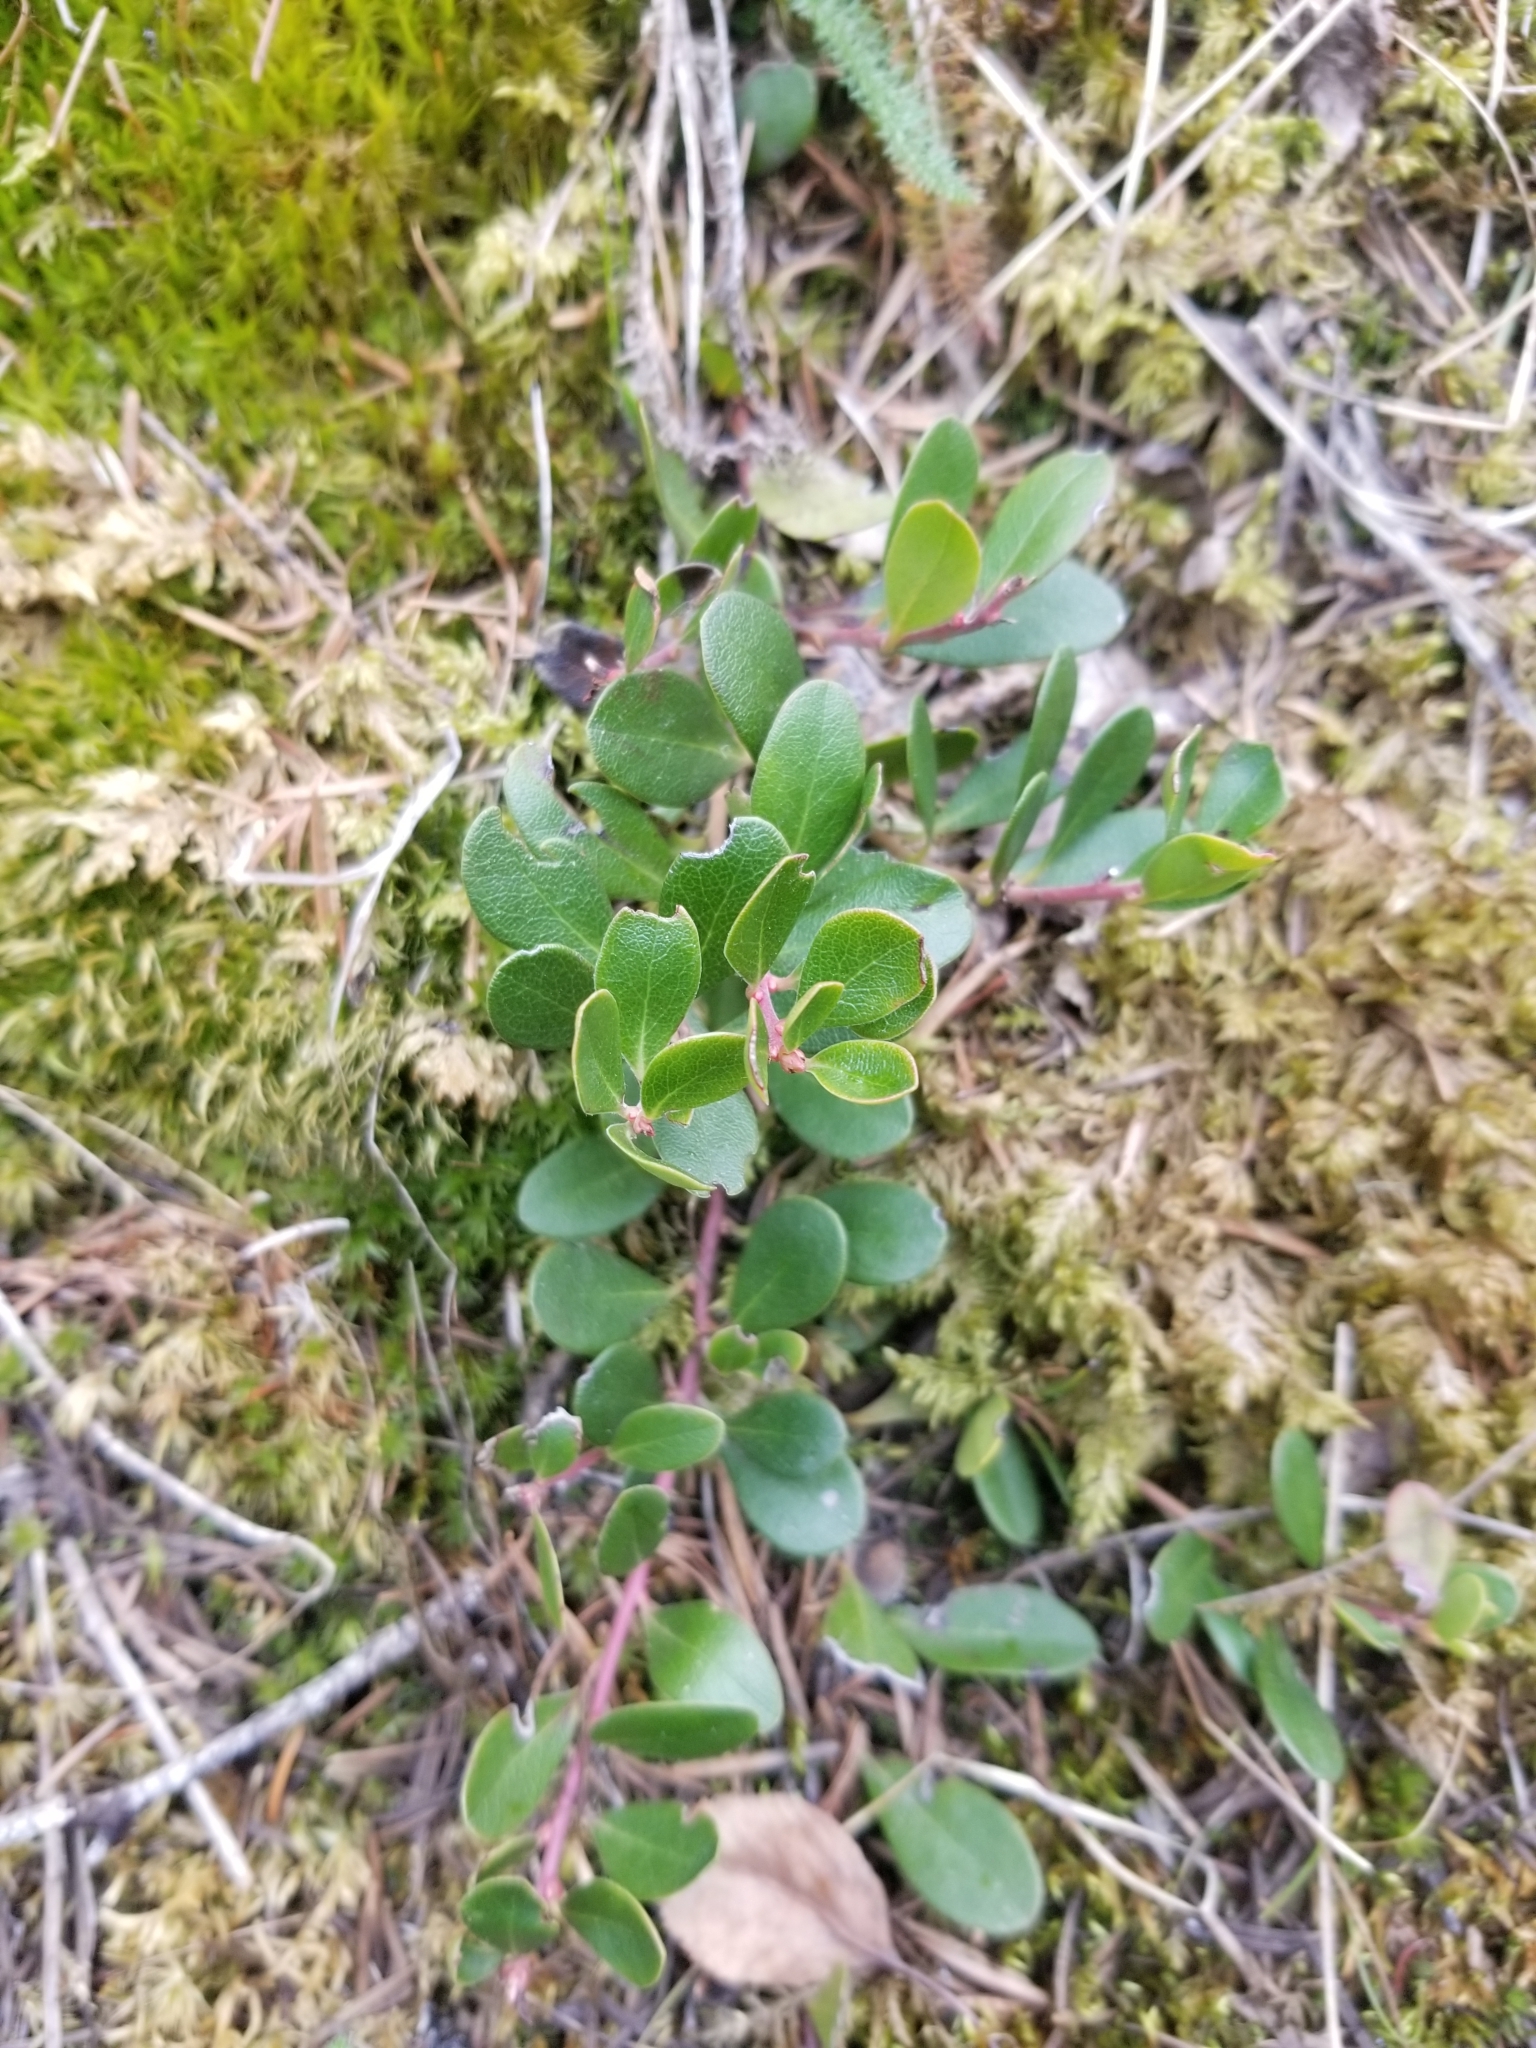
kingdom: Plantae
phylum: Tracheophyta
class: Magnoliopsida
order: Ericales
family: Ericaceae
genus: Arctostaphylos
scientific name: Arctostaphylos uva-ursi
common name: Bearberry
